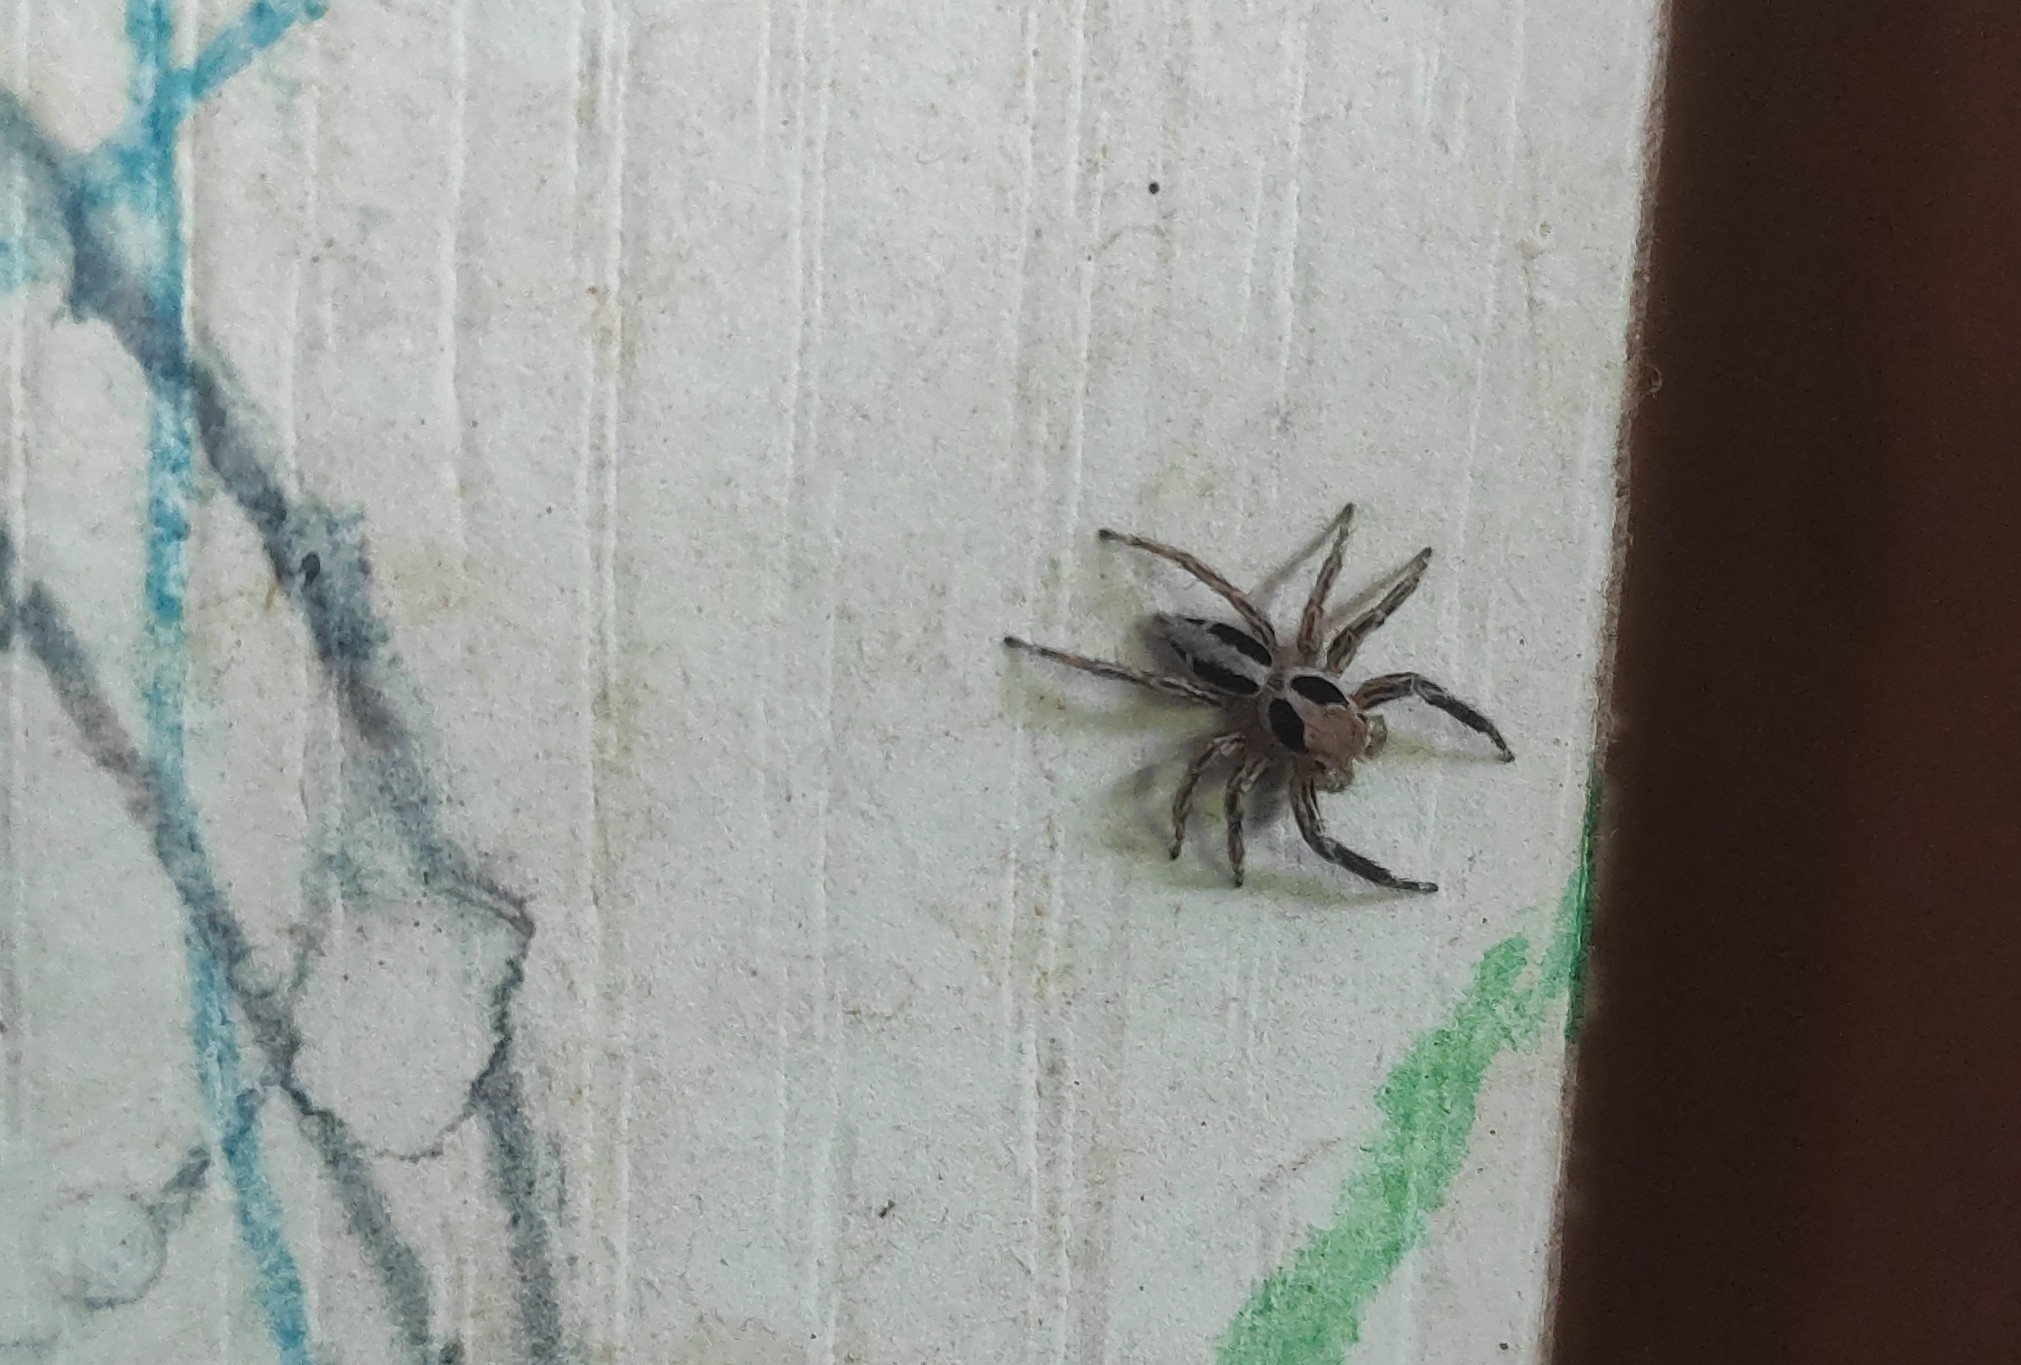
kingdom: Animalia
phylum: Arthropoda
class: Arachnida
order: Araneae
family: Salticidae
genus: Plexippus
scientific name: Plexippus petersi
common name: Jumping spider
